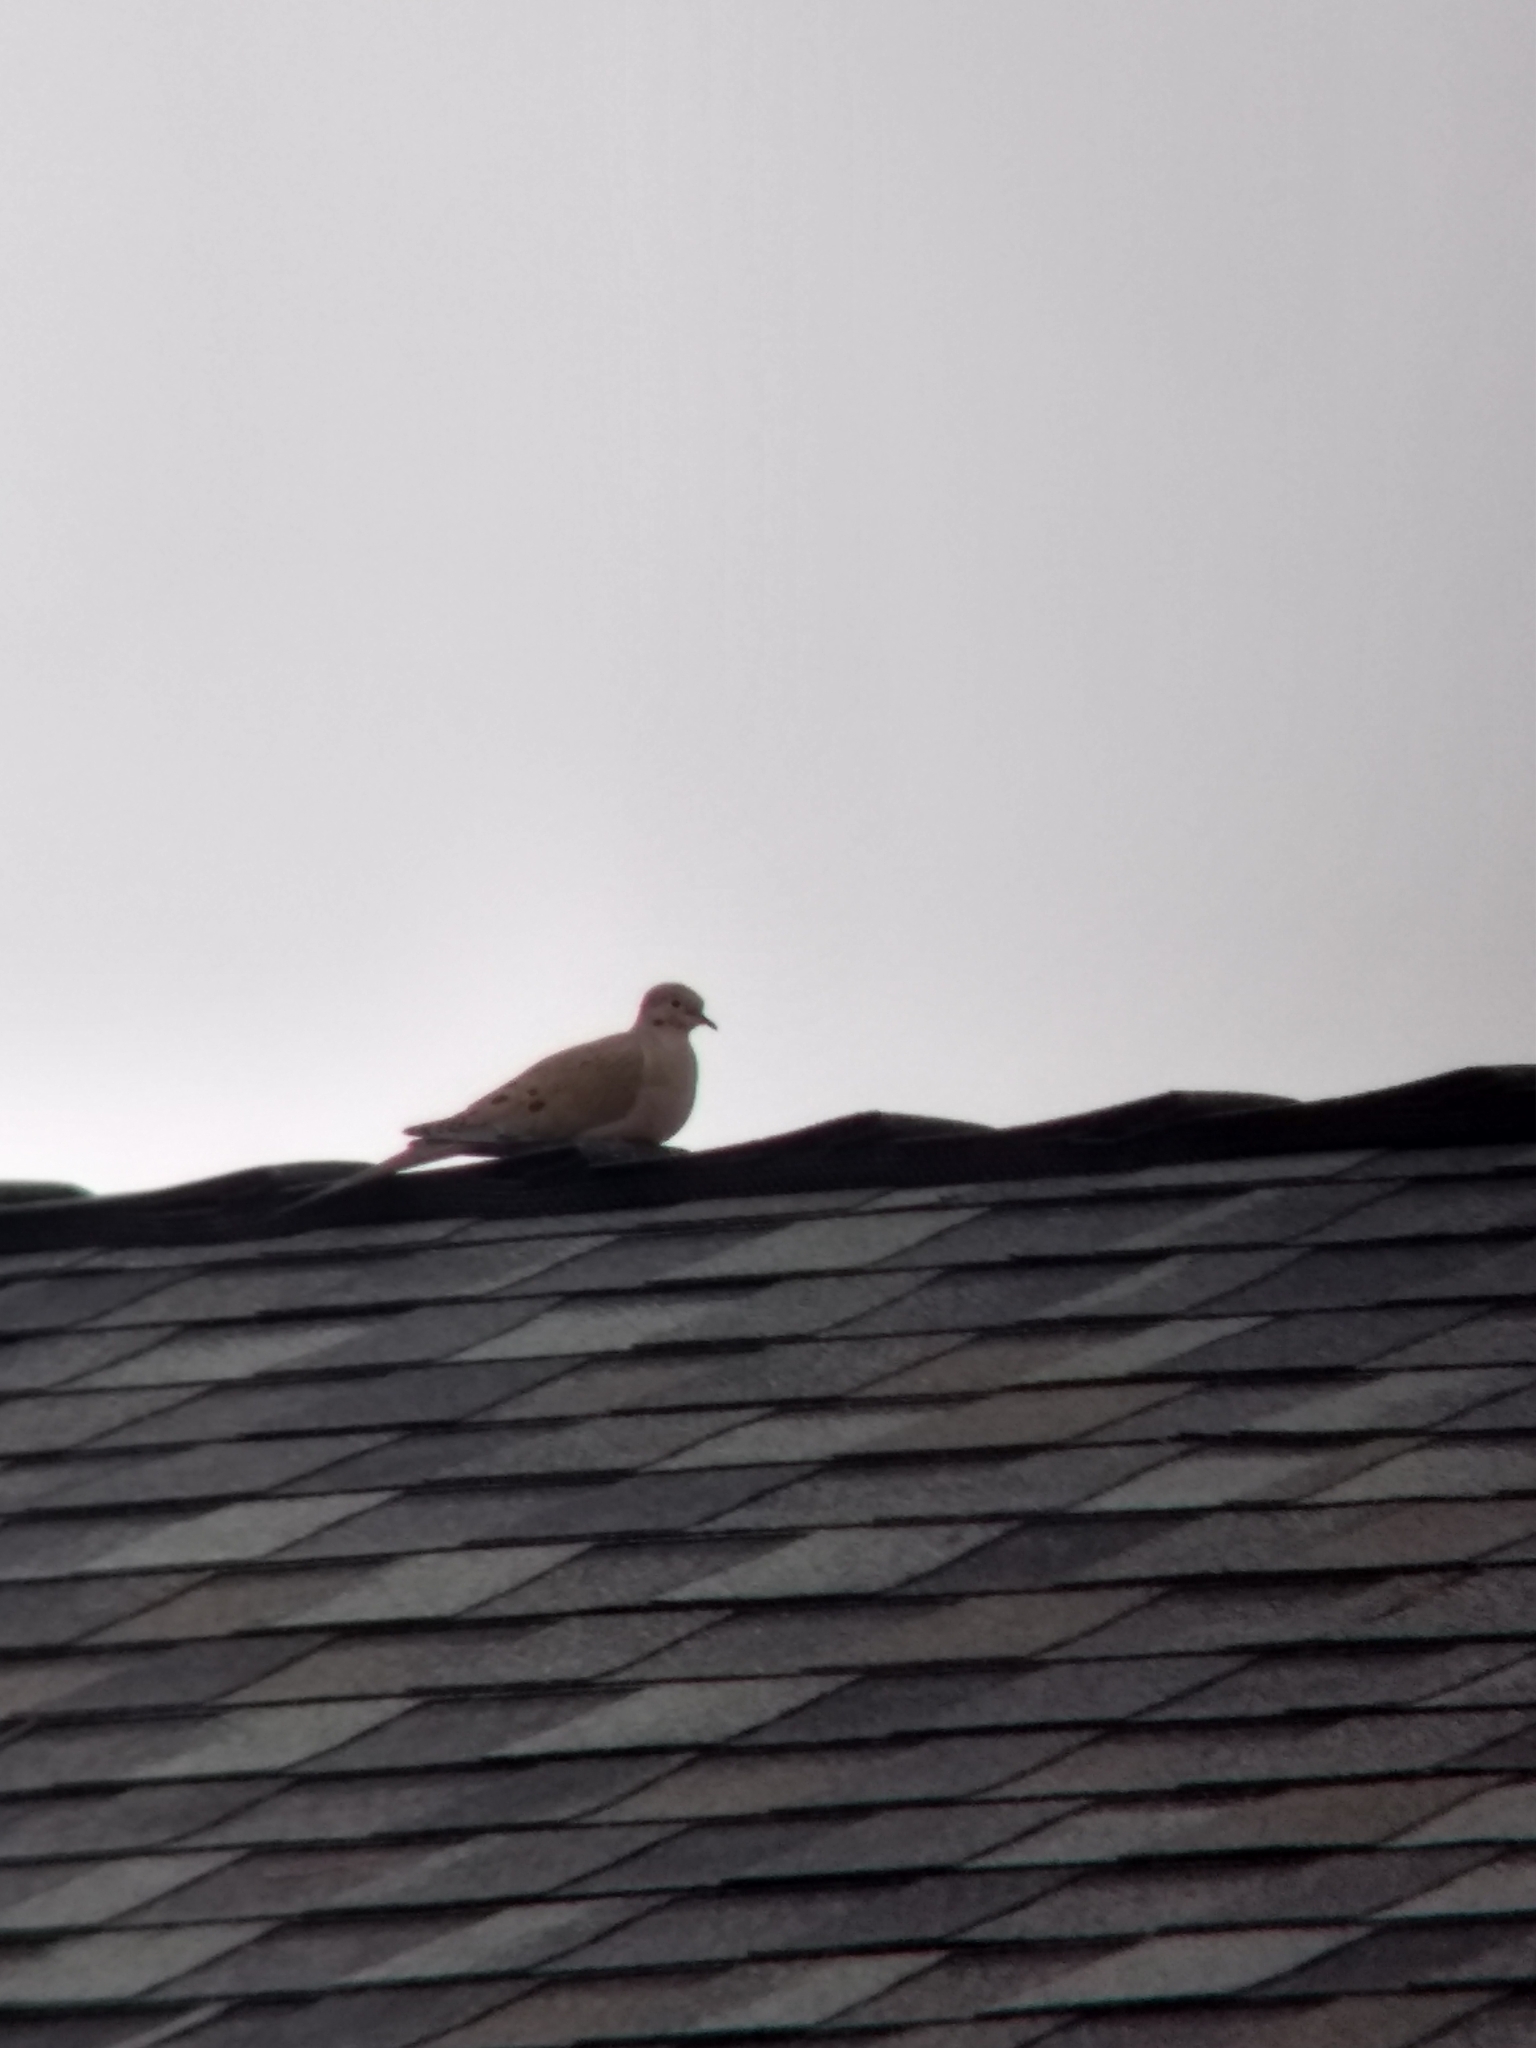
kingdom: Animalia
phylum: Chordata
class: Aves
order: Columbiformes
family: Columbidae
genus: Zenaida
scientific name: Zenaida macroura
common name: Mourning dove
